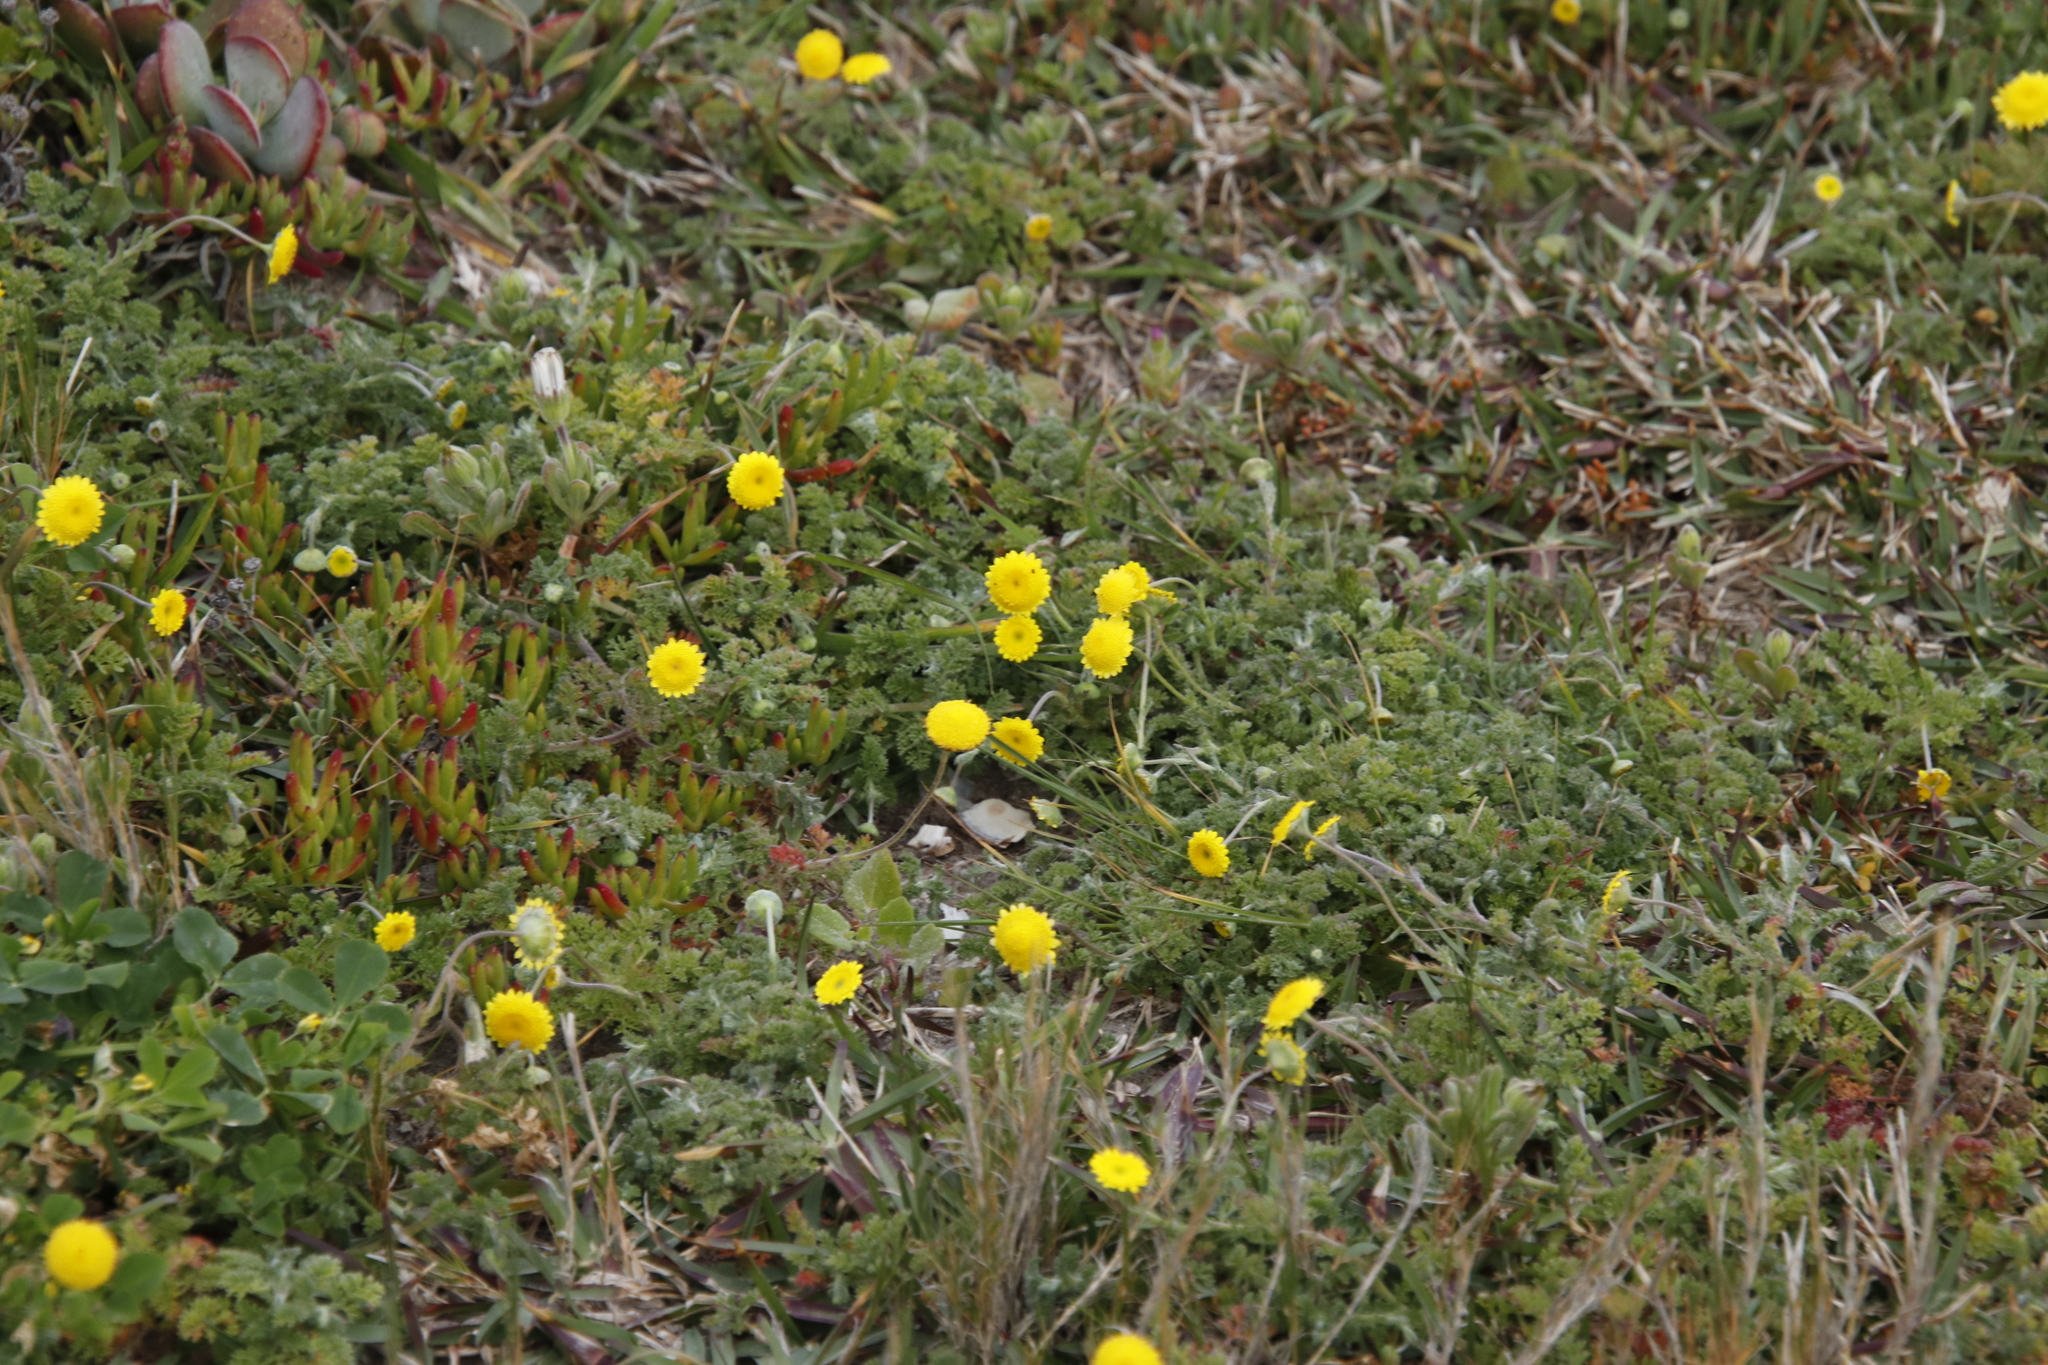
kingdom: Plantae
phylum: Tracheophyta
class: Magnoliopsida
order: Asterales
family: Asteraceae
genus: Cotula
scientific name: Cotula pruinosa
